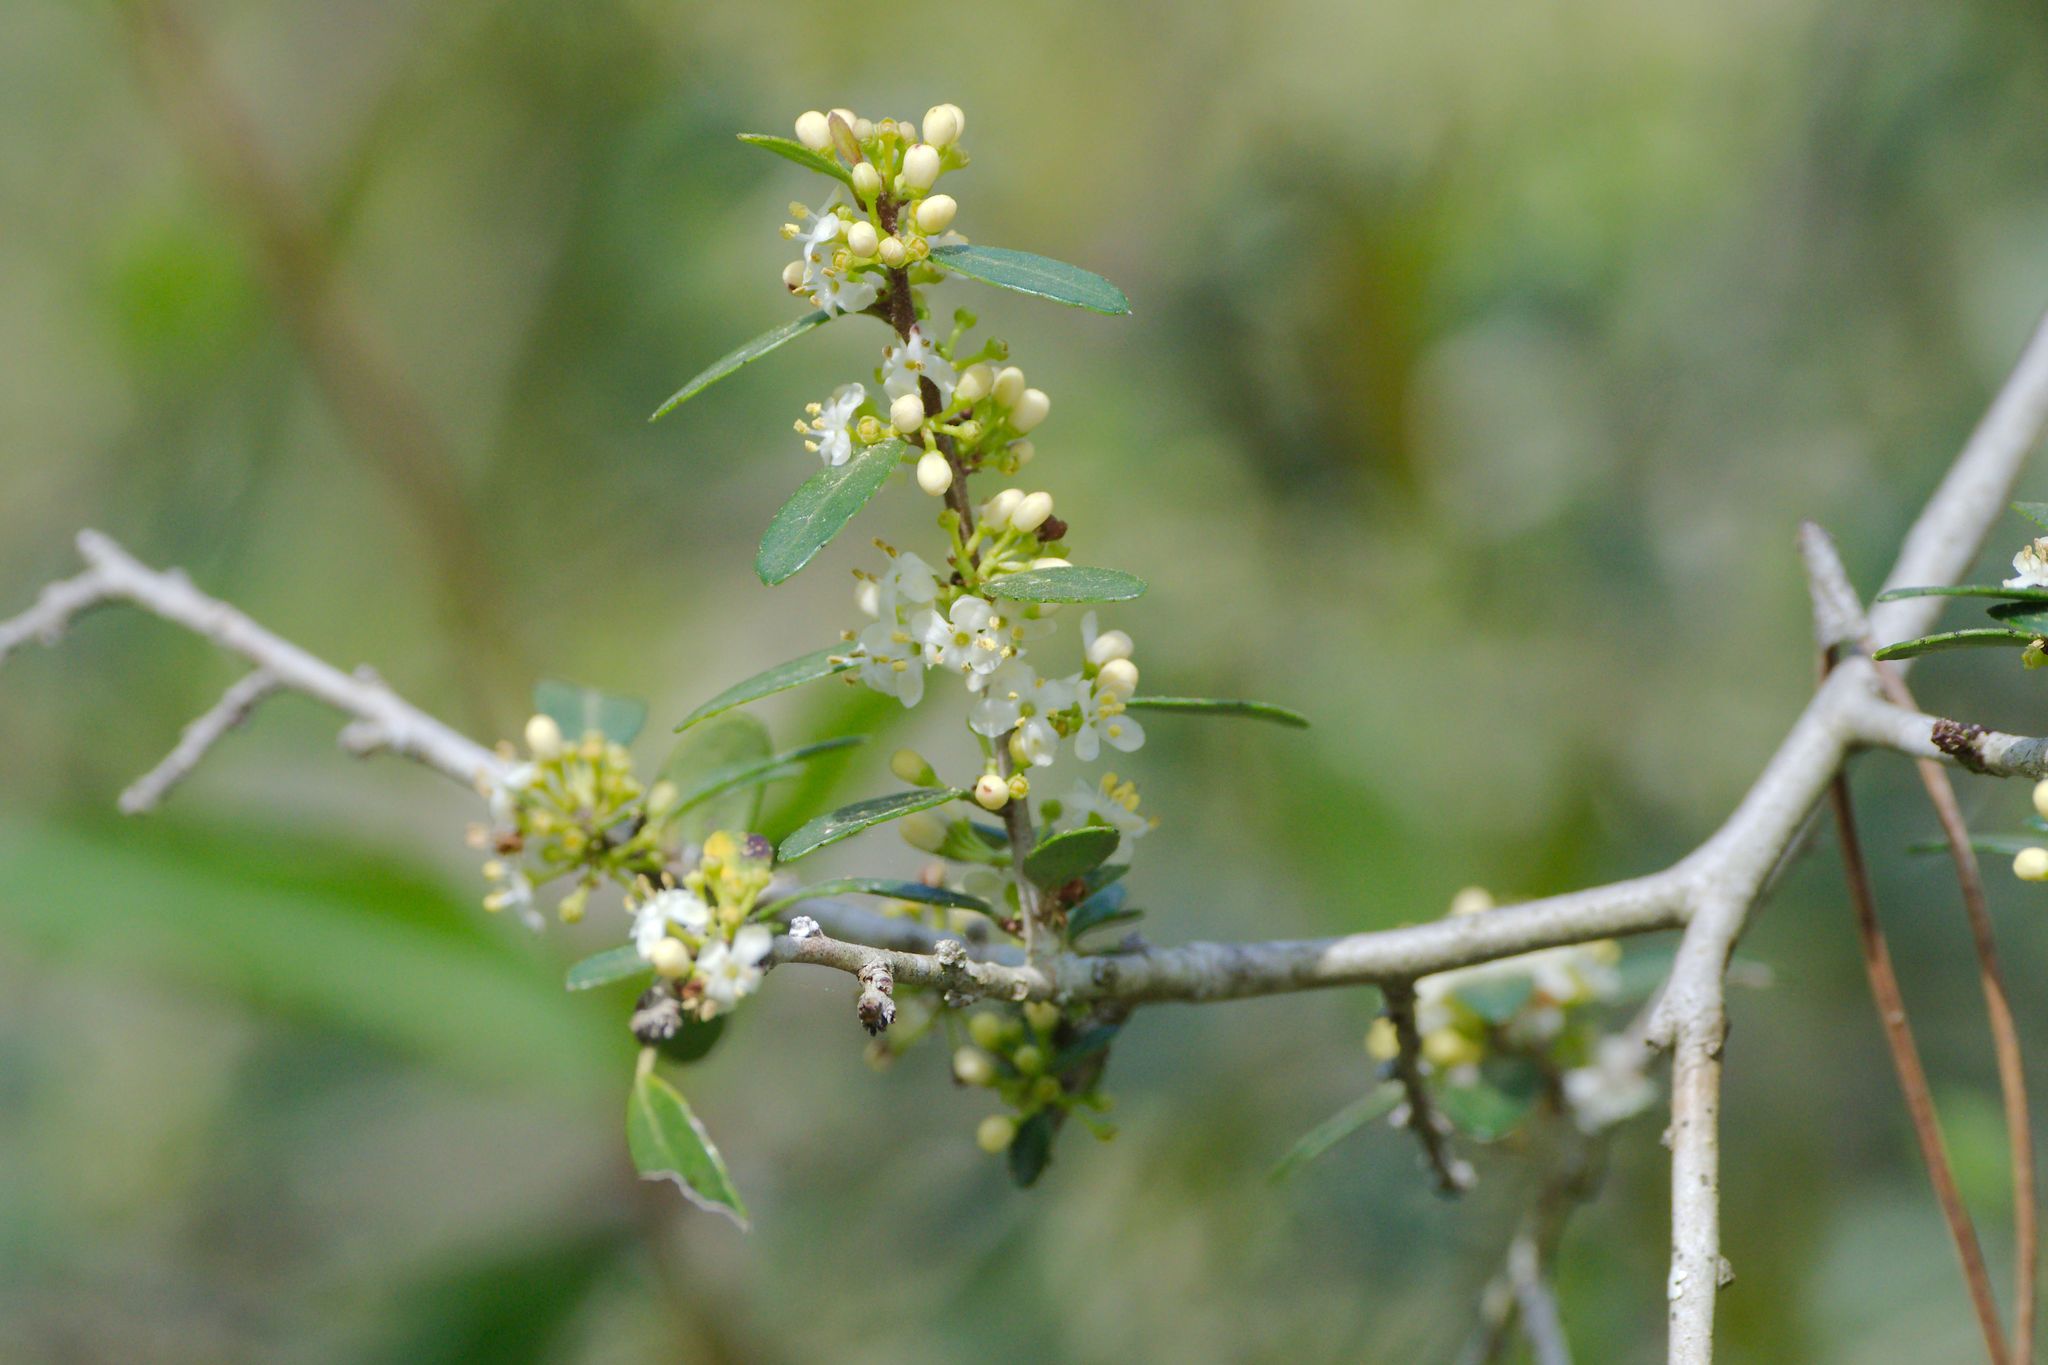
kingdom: Plantae
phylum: Tracheophyta
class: Magnoliopsida
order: Aquifoliales
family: Aquifoliaceae
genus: Ilex
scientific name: Ilex vomitoria
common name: Yaupon holly
